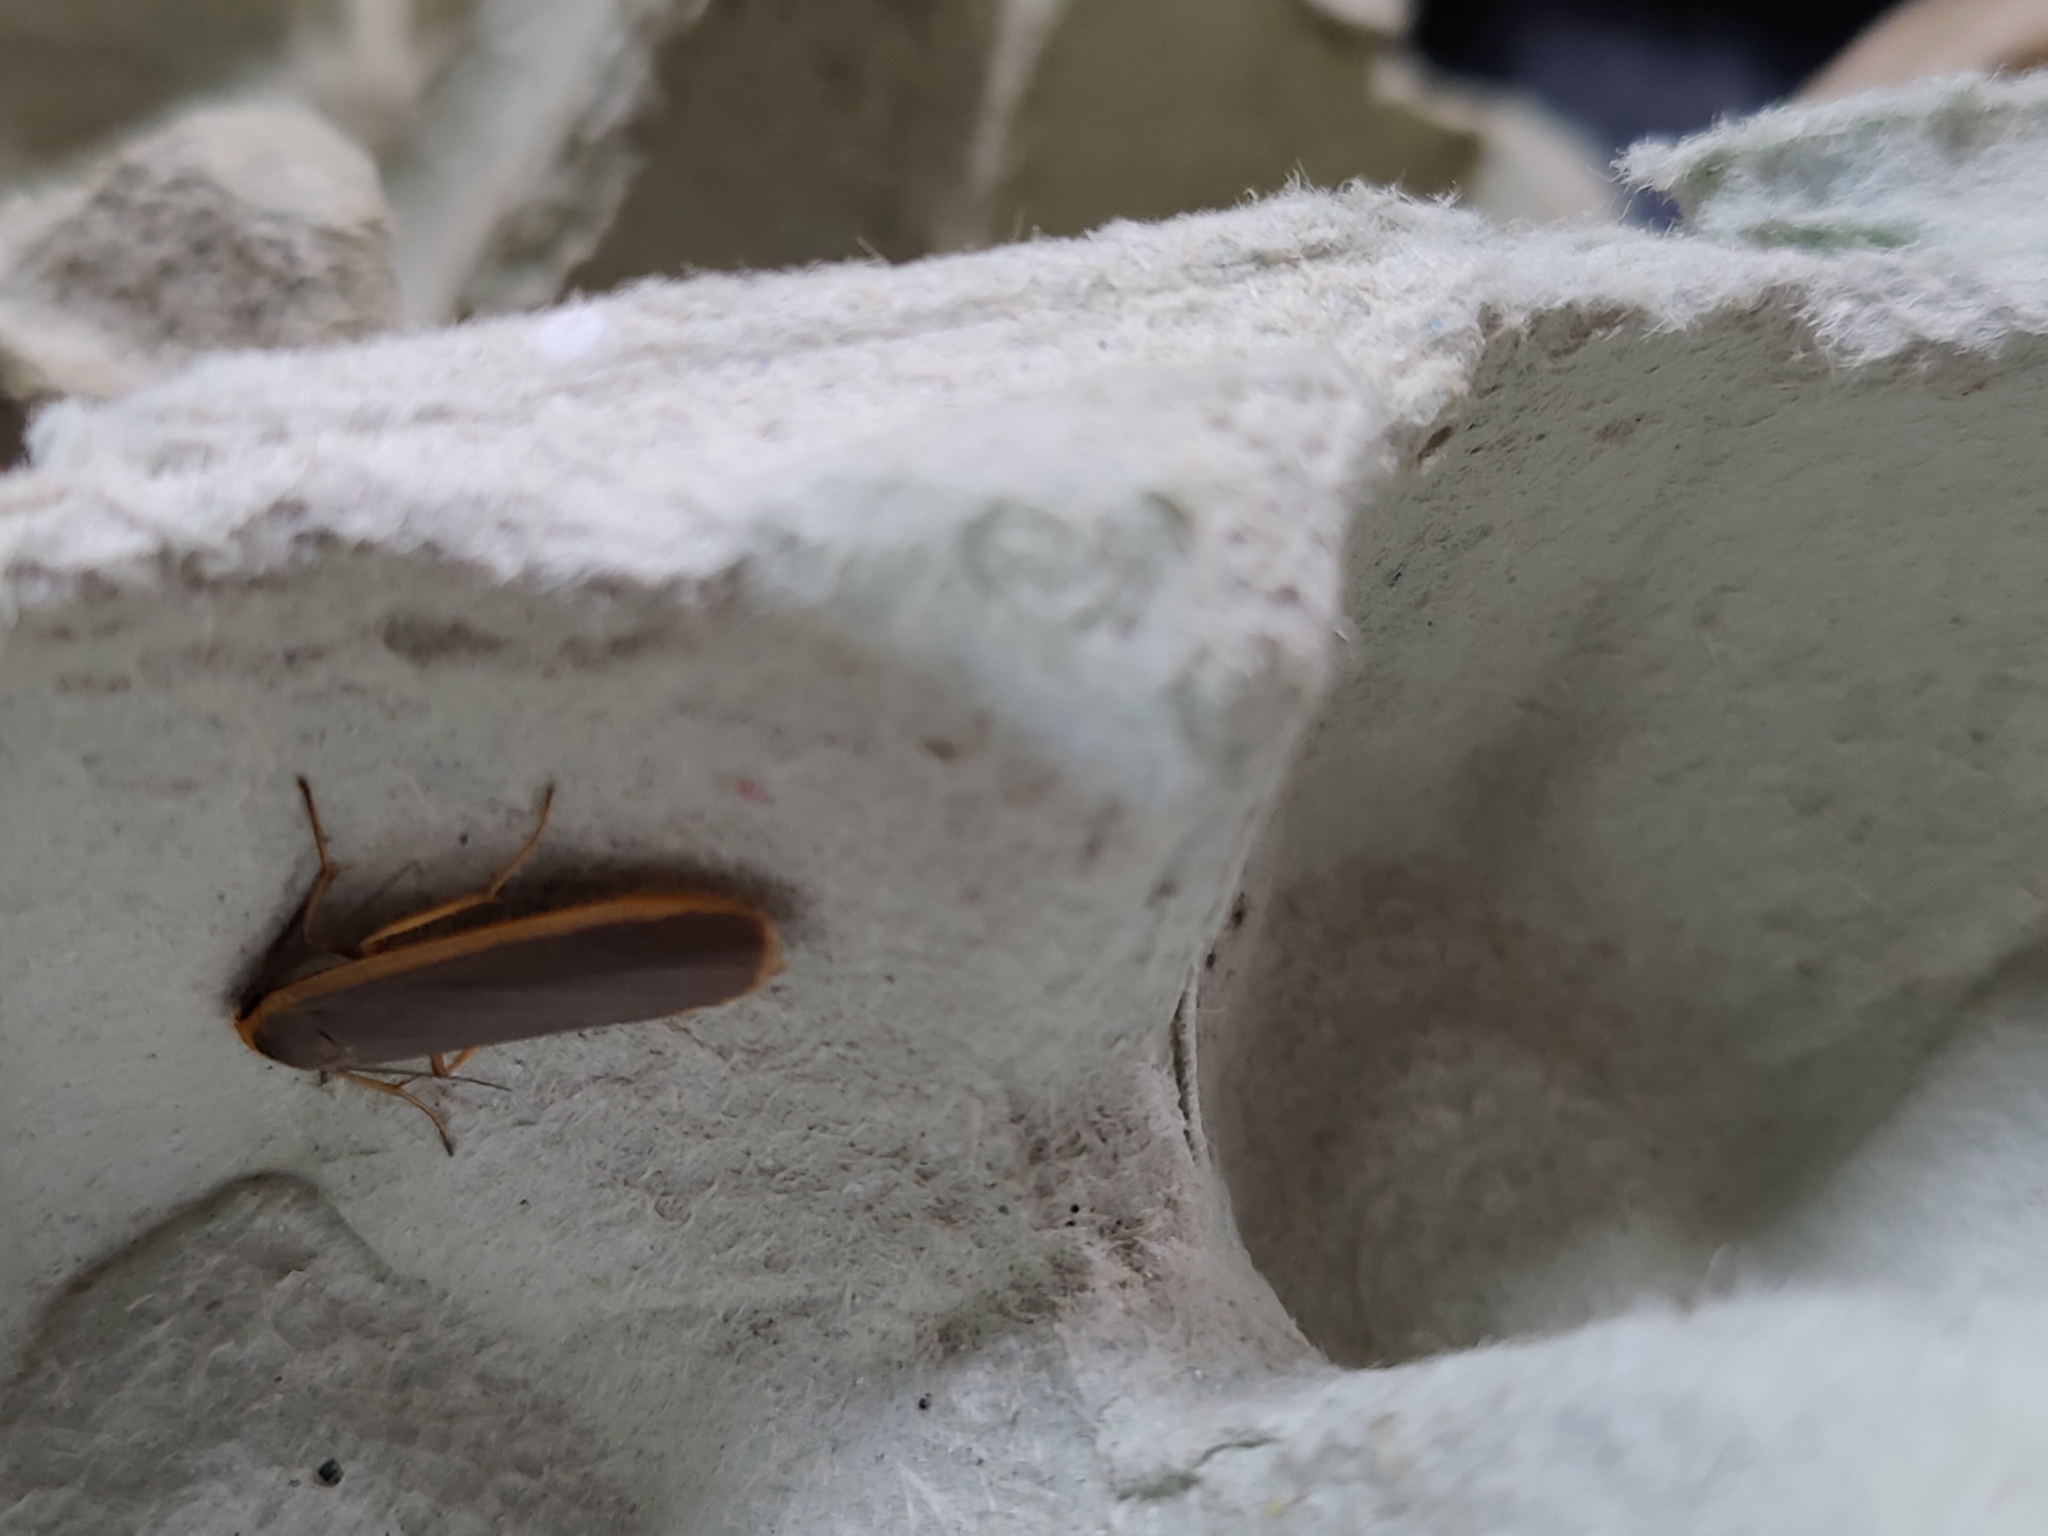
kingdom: Animalia
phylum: Arthropoda
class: Insecta
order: Lepidoptera
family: Erebidae
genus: Nyea
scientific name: Nyea lurideola
